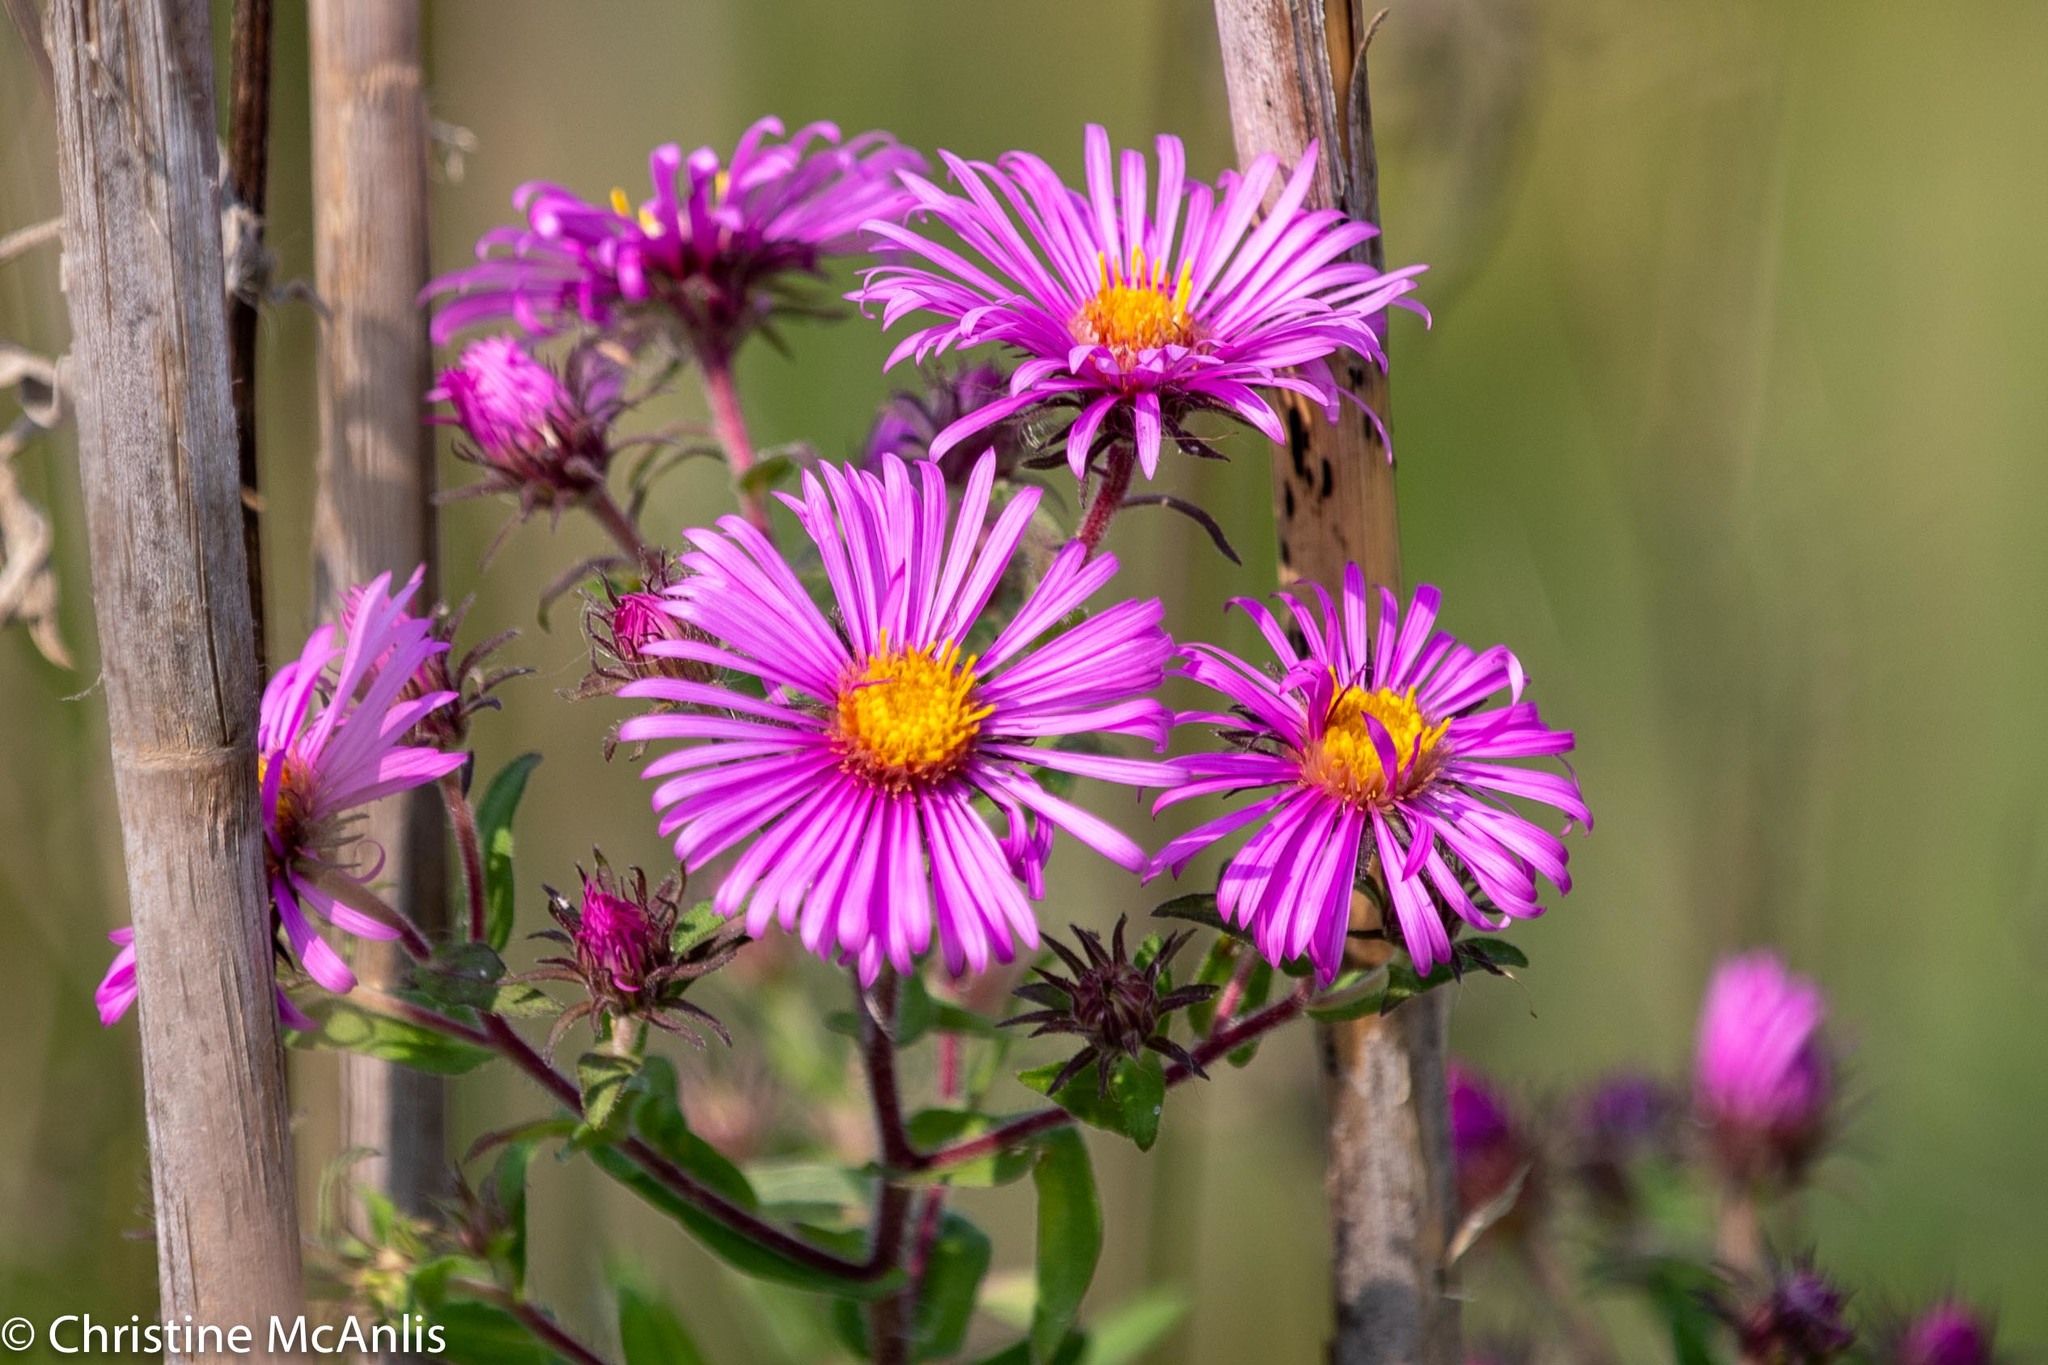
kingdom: Plantae
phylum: Tracheophyta
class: Magnoliopsida
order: Asterales
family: Asteraceae
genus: Symphyotrichum
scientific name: Symphyotrichum novae-angliae
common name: Michaelmas daisy
